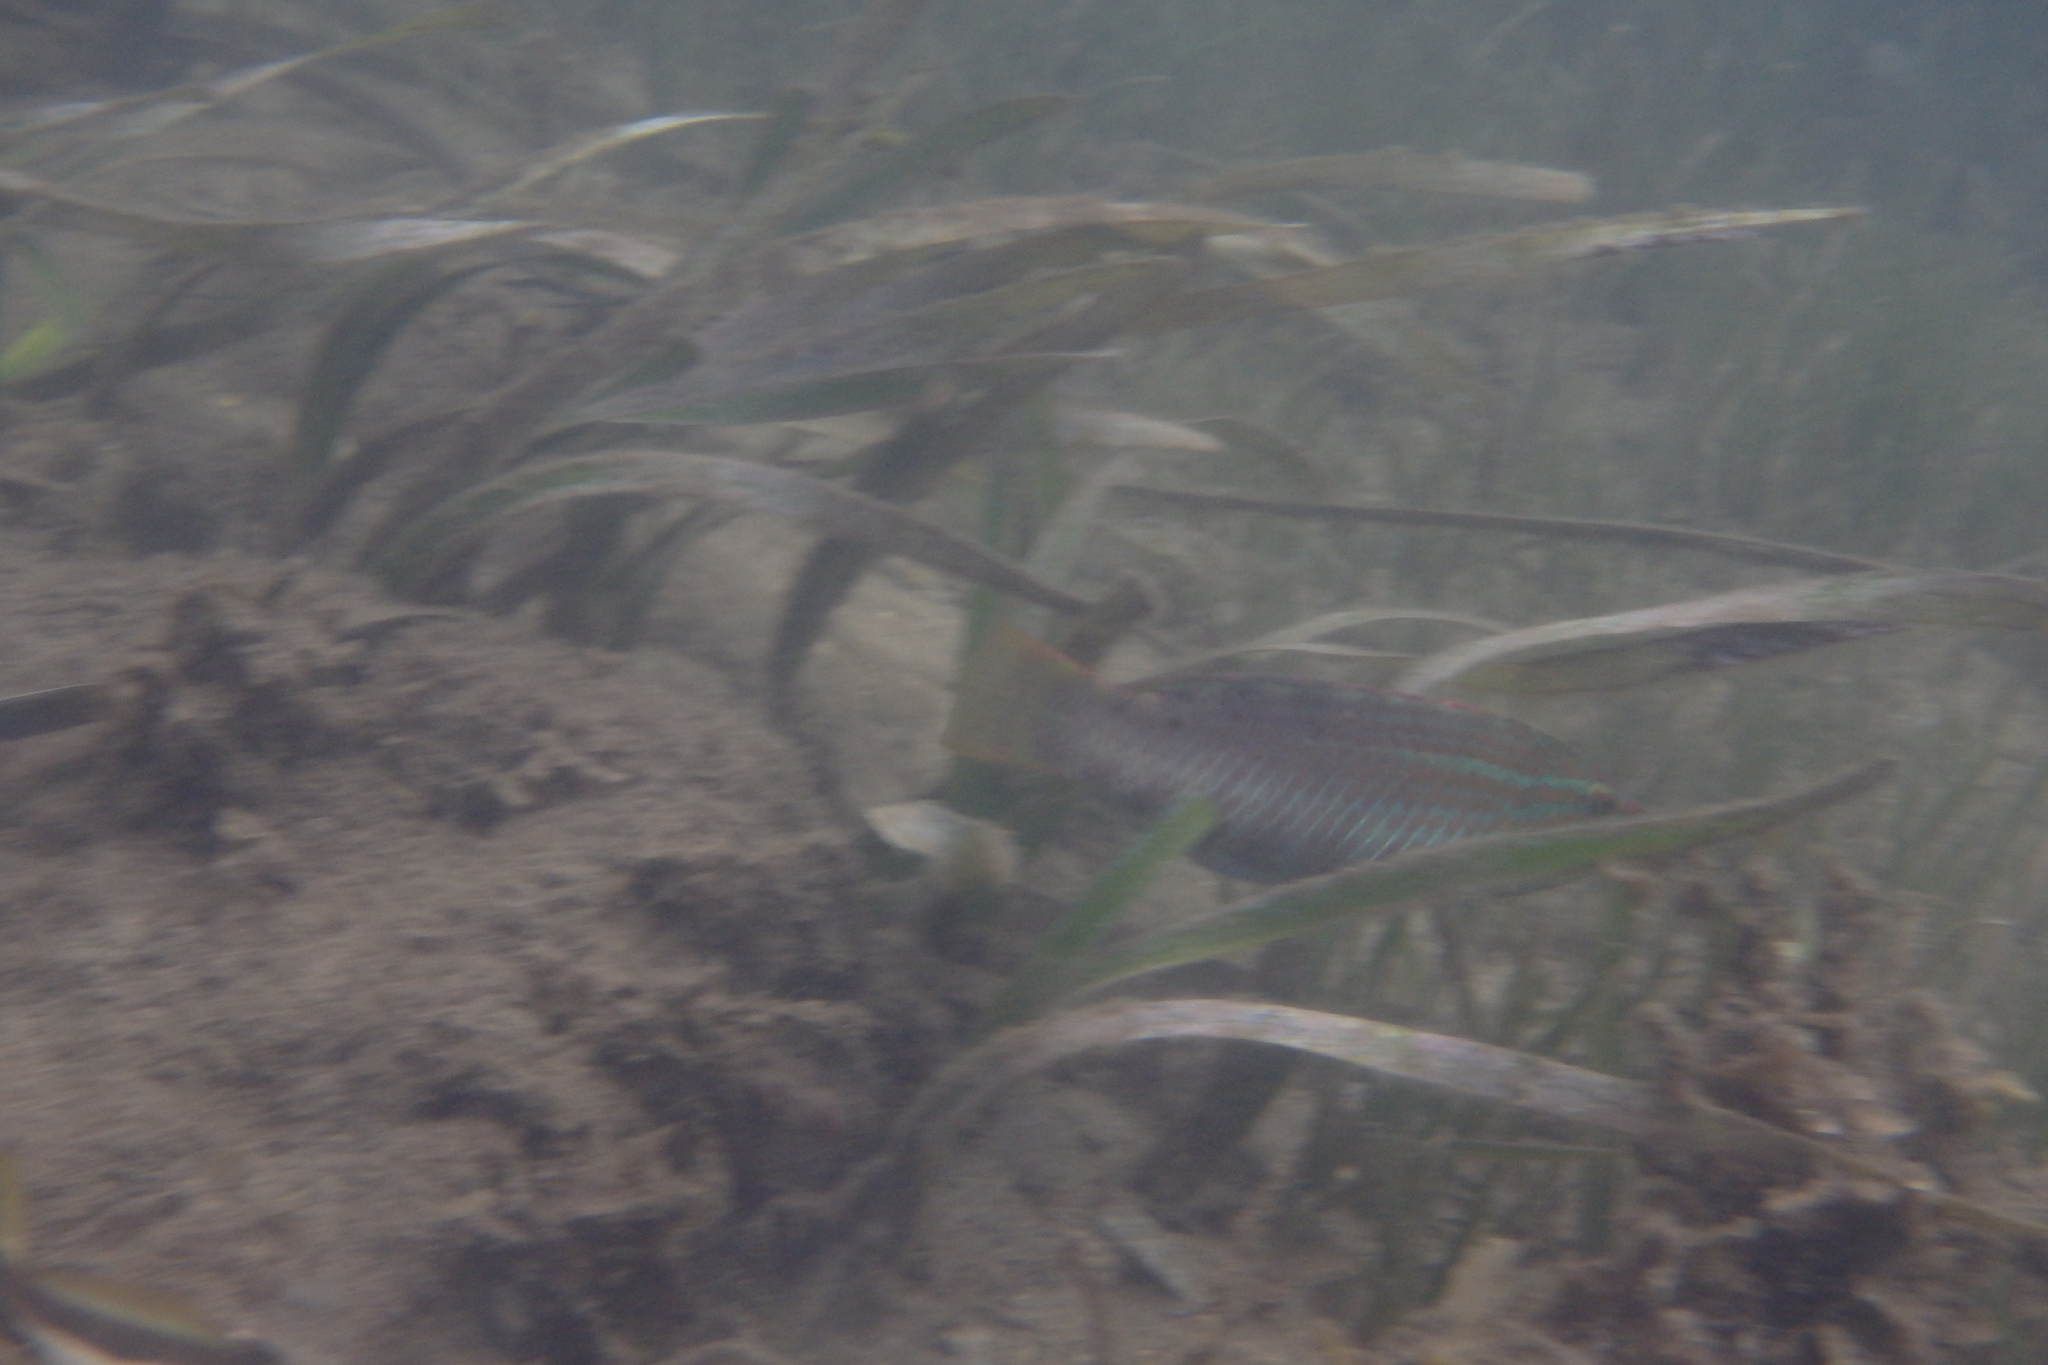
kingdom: Animalia
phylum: Chordata
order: Perciformes
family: Labridae
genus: Pseudolabrus
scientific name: Pseudolabrus guentheri
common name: Günther's wrasse
